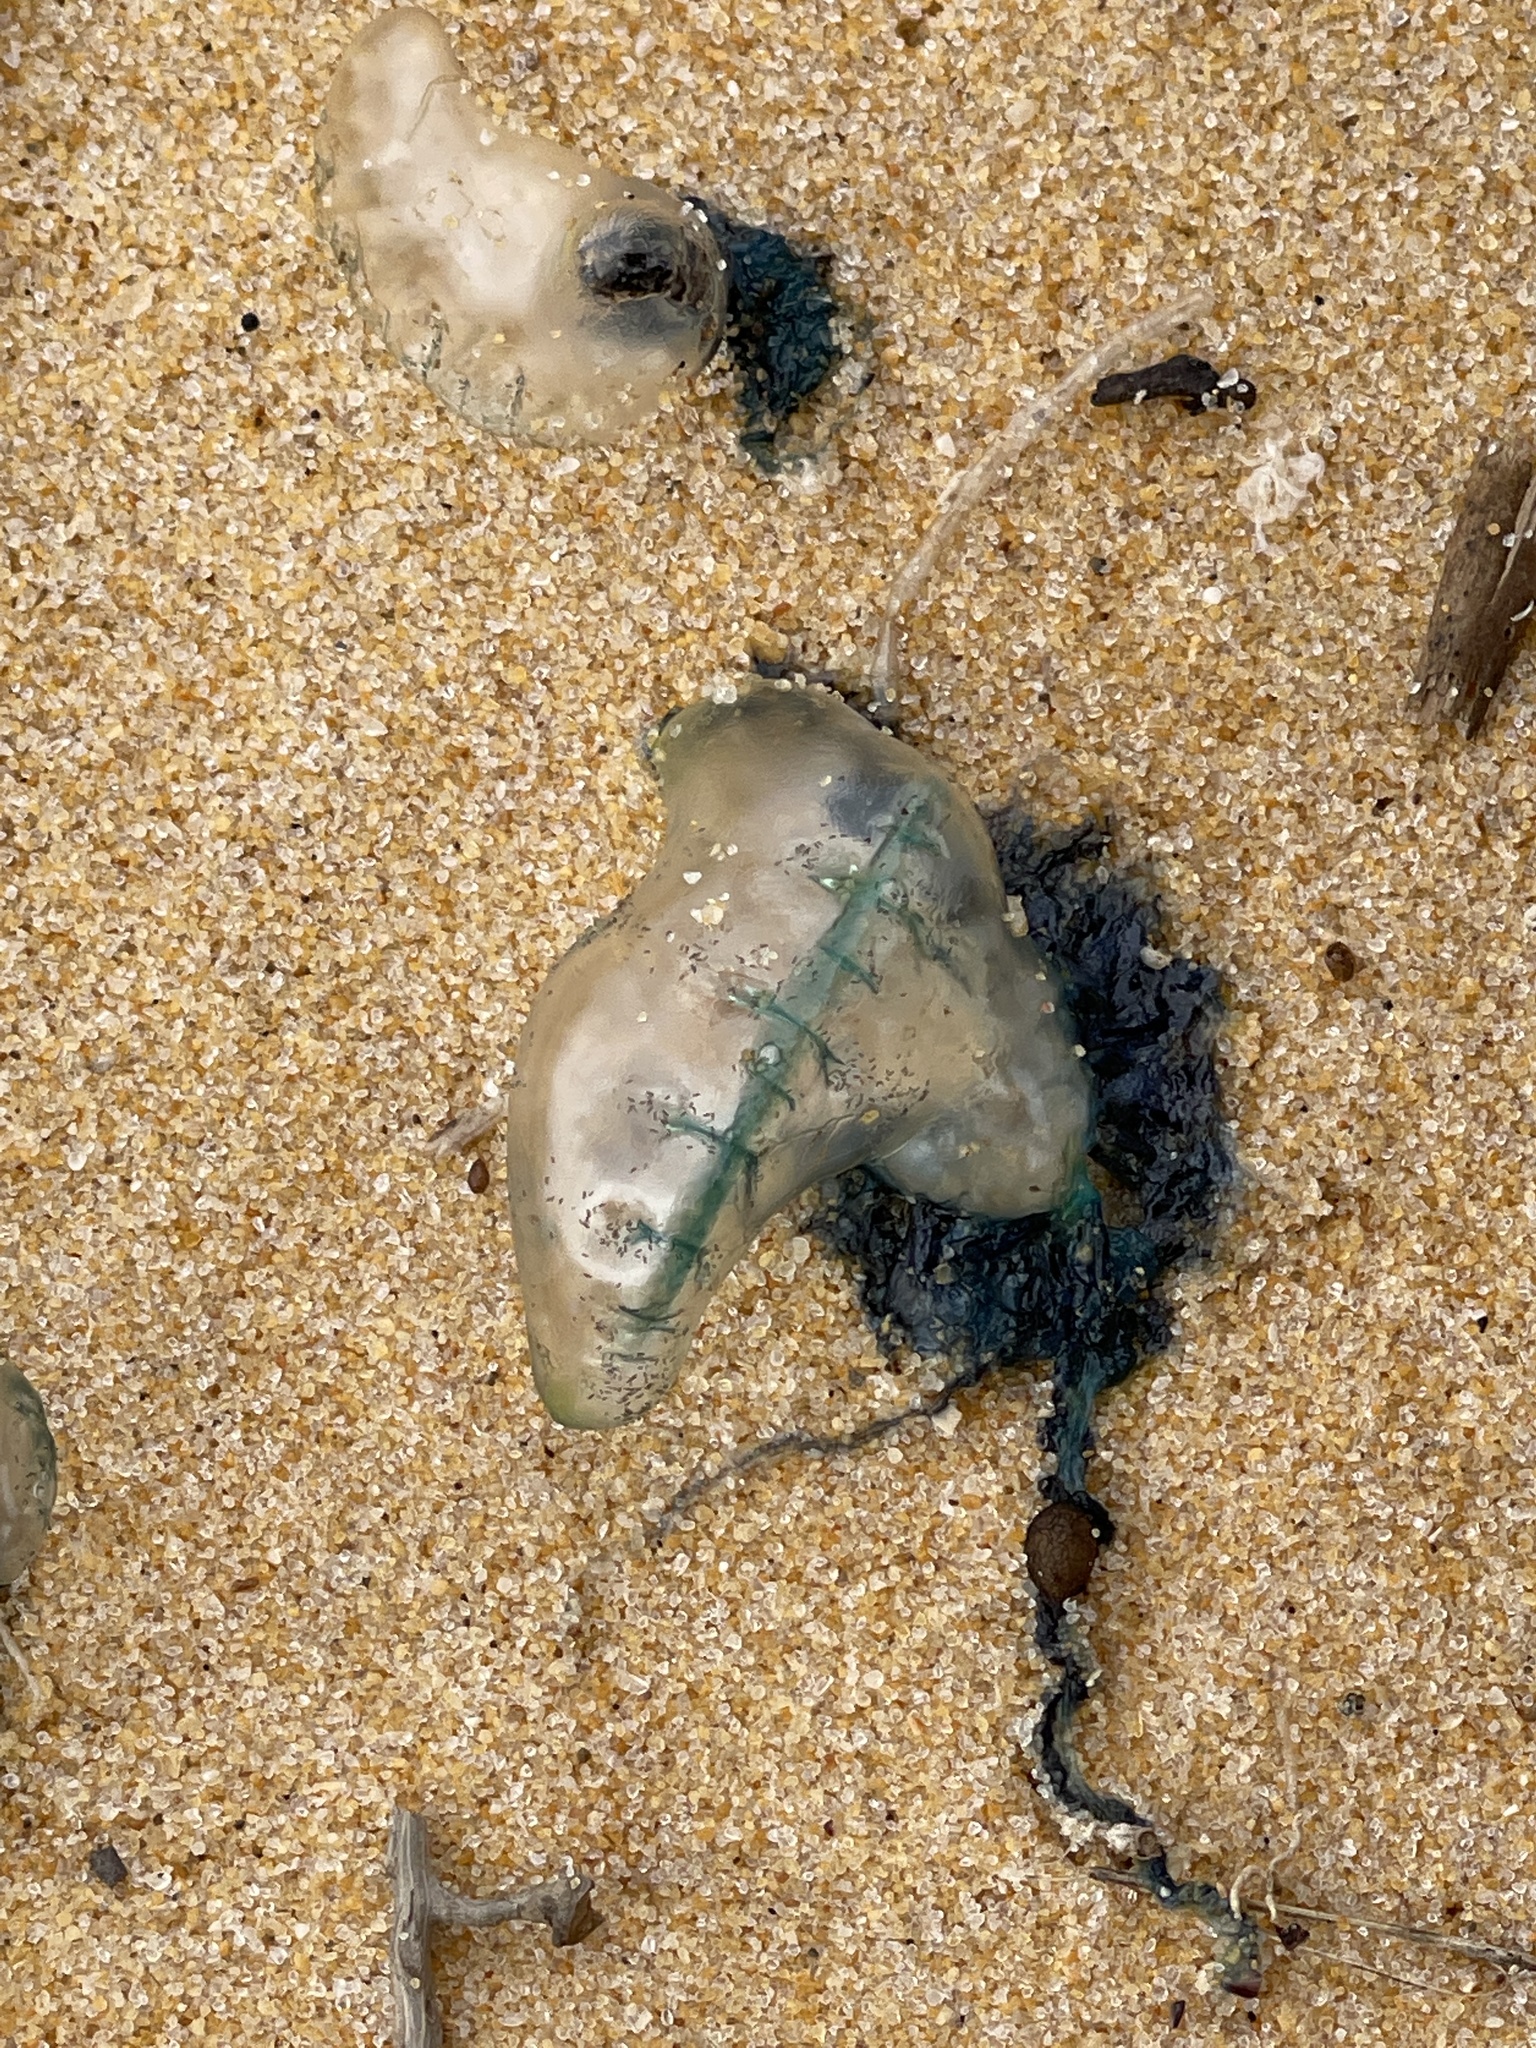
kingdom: Animalia
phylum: Cnidaria
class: Hydrozoa
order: Siphonophorae
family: Physaliidae
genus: Physalia
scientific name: Physalia physalis
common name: Portuguese man-of-war
